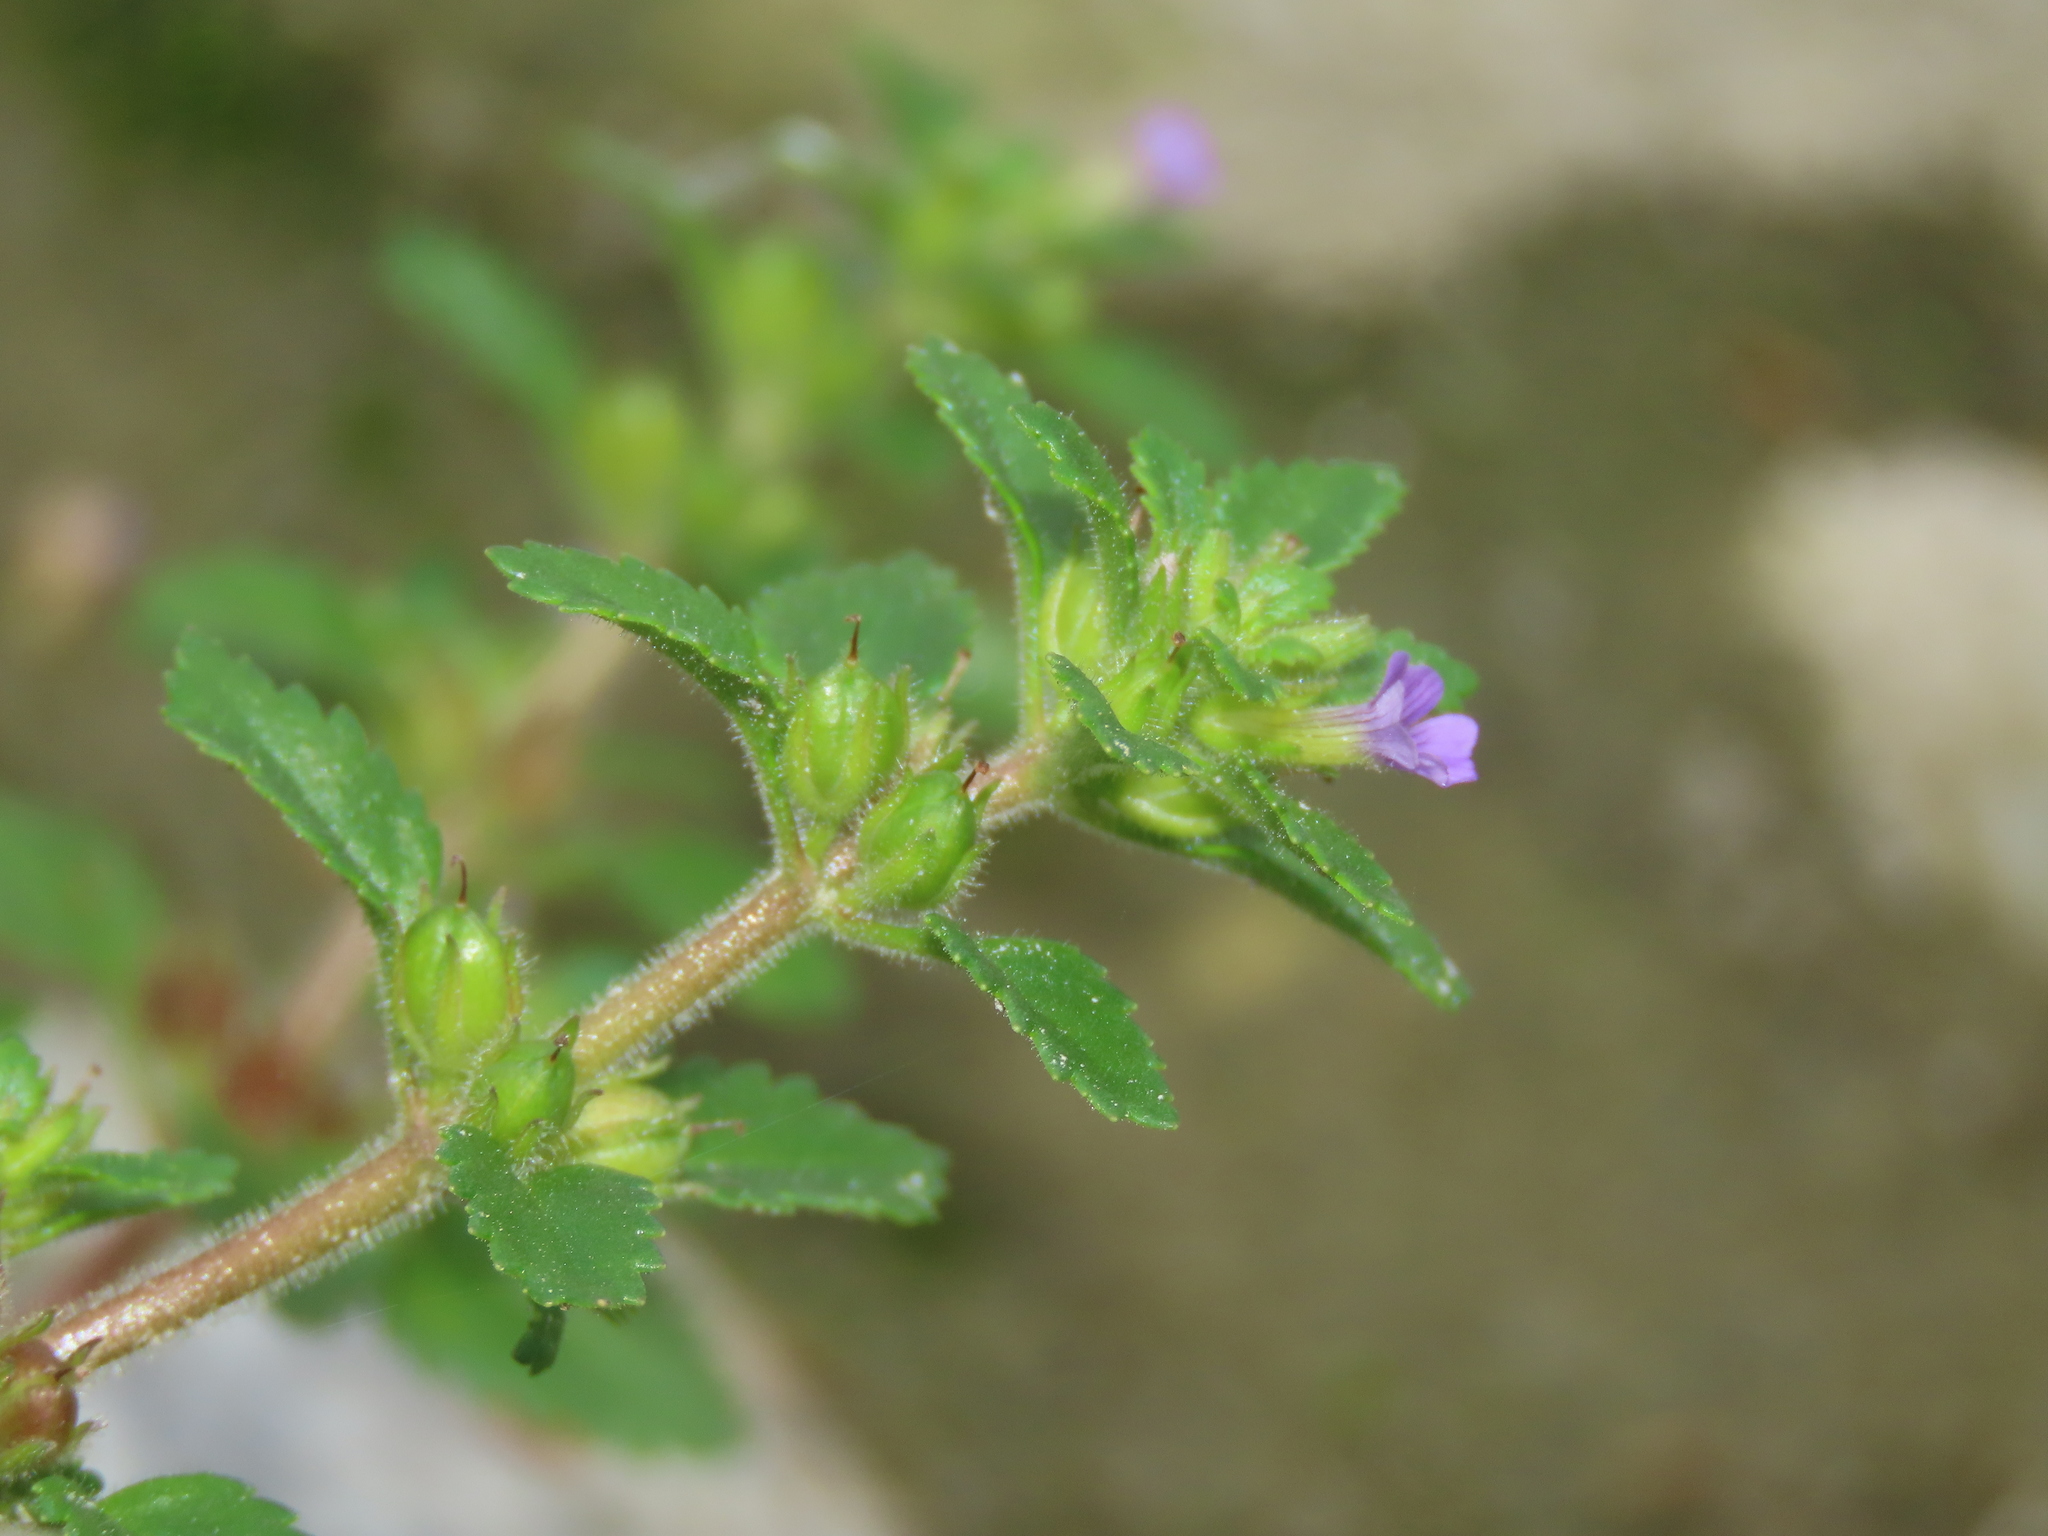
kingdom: Plantae
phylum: Tracheophyta
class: Magnoliopsida
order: Lamiales
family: Plantaginaceae
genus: Stemodia
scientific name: Stemodia verticillata
